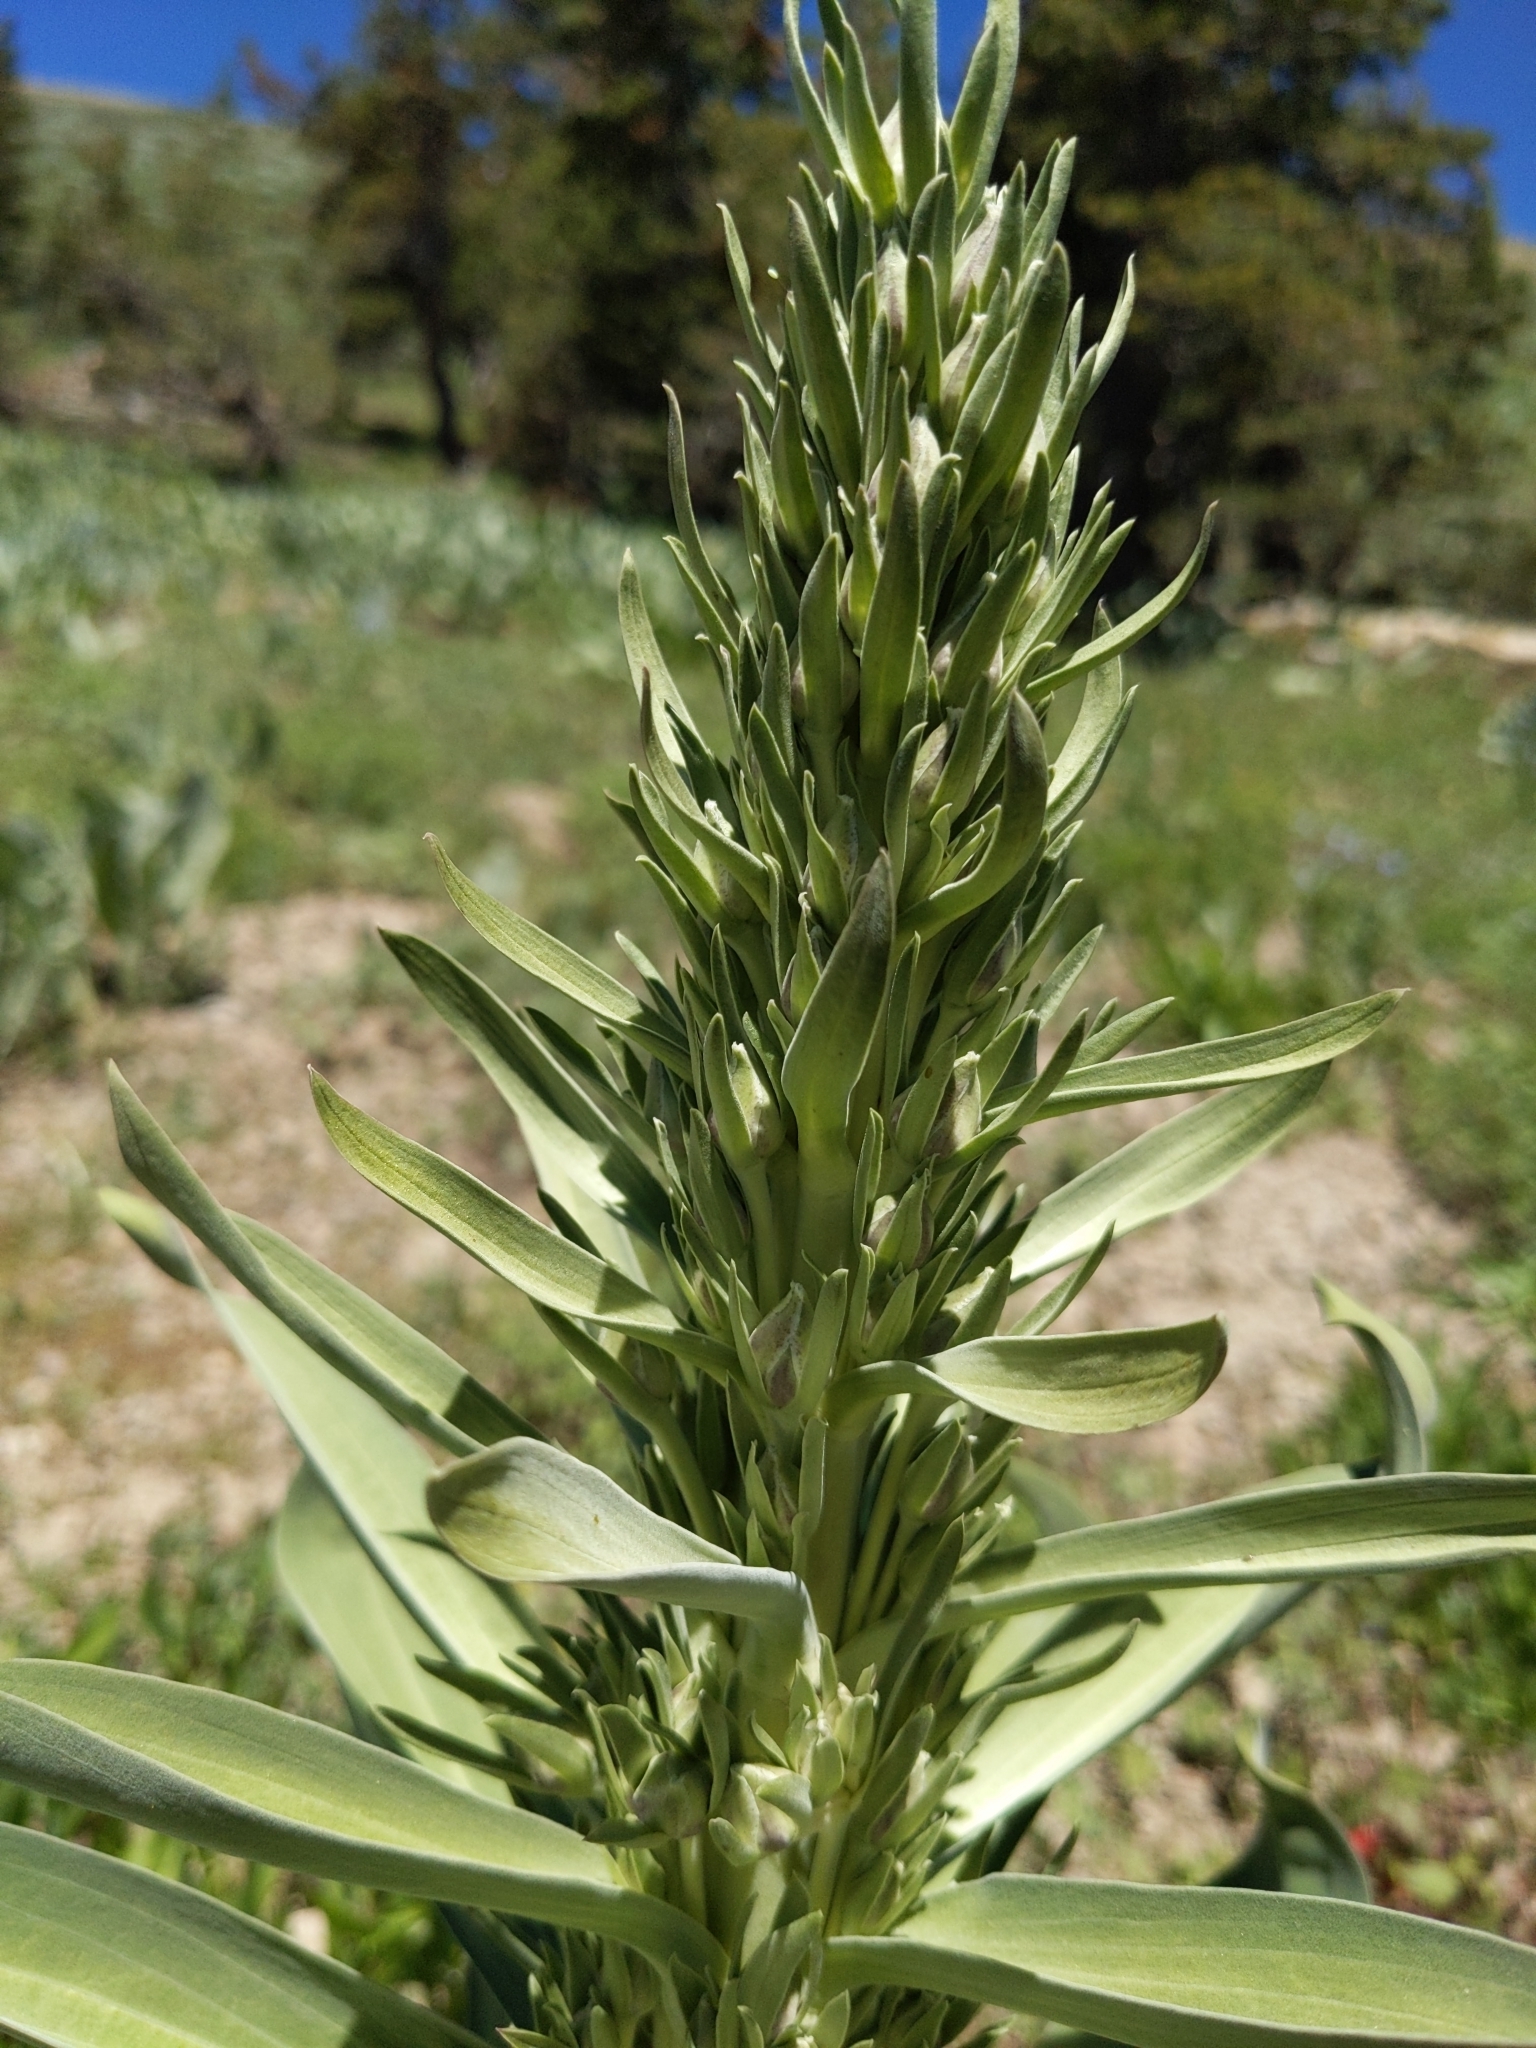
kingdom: Plantae
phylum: Tracheophyta
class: Magnoliopsida
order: Gentianales
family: Gentianaceae
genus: Frasera
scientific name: Frasera speciosa
